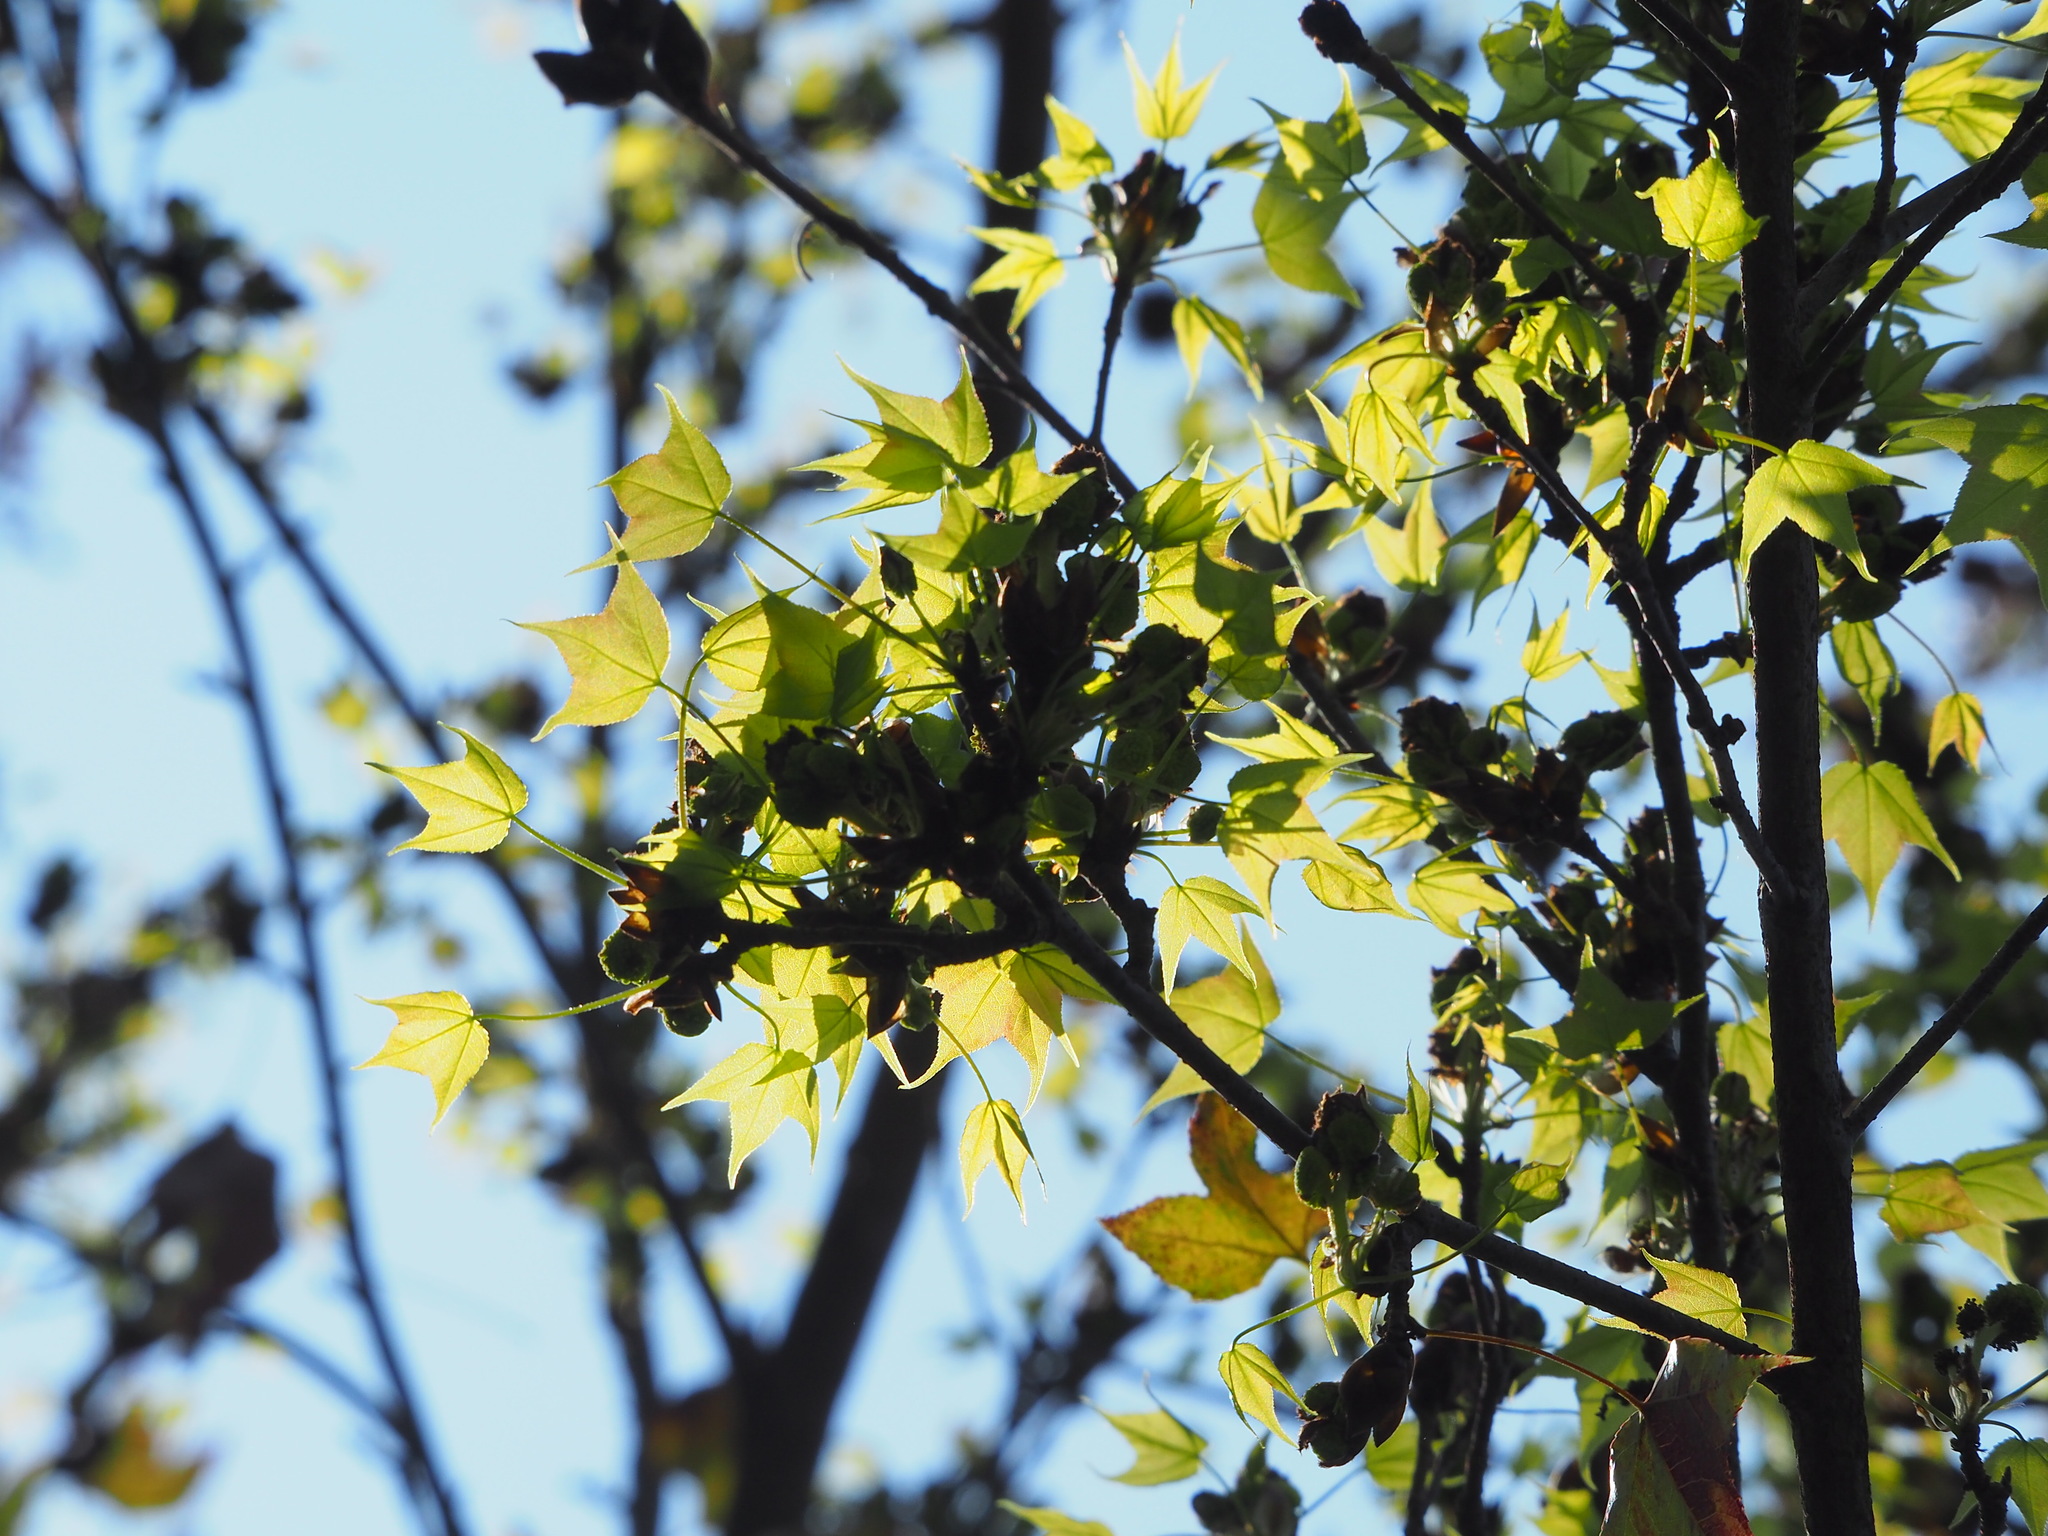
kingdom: Plantae
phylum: Tracheophyta
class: Magnoliopsida
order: Saxifragales
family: Altingiaceae
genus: Liquidambar
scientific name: Liquidambar formosana
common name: Chinese sweet gum
